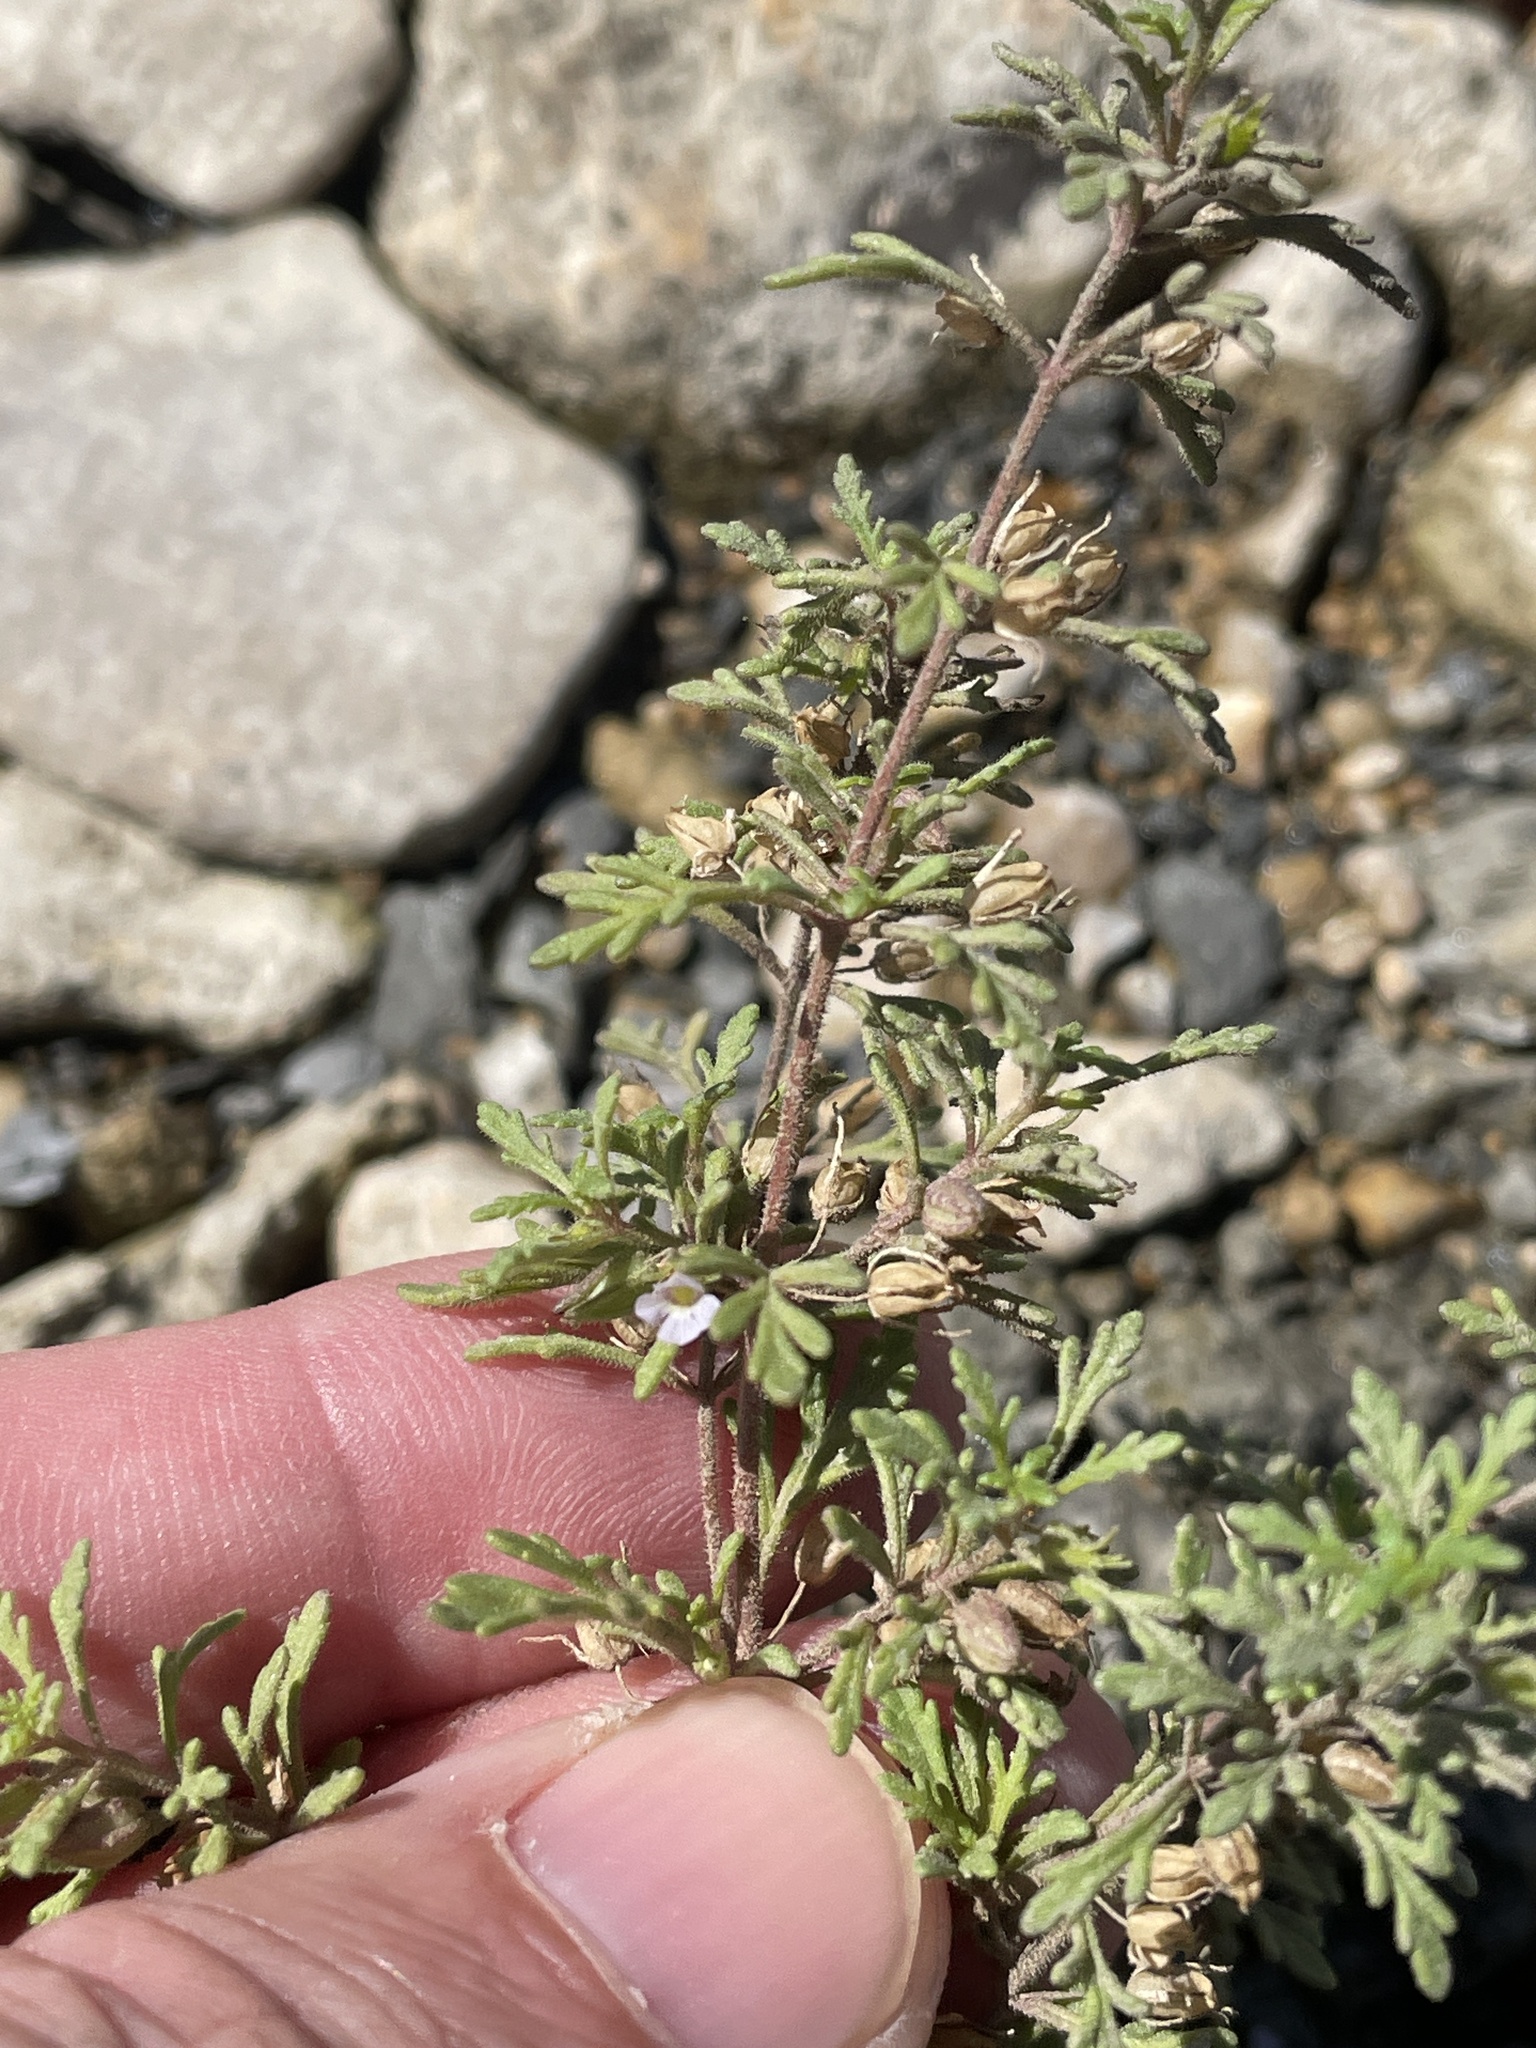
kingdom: Plantae
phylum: Tracheophyta
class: Magnoliopsida
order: Lamiales
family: Plantaginaceae
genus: Leucospora
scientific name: Leucospora multifida
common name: Narrow-leaf paleseed
